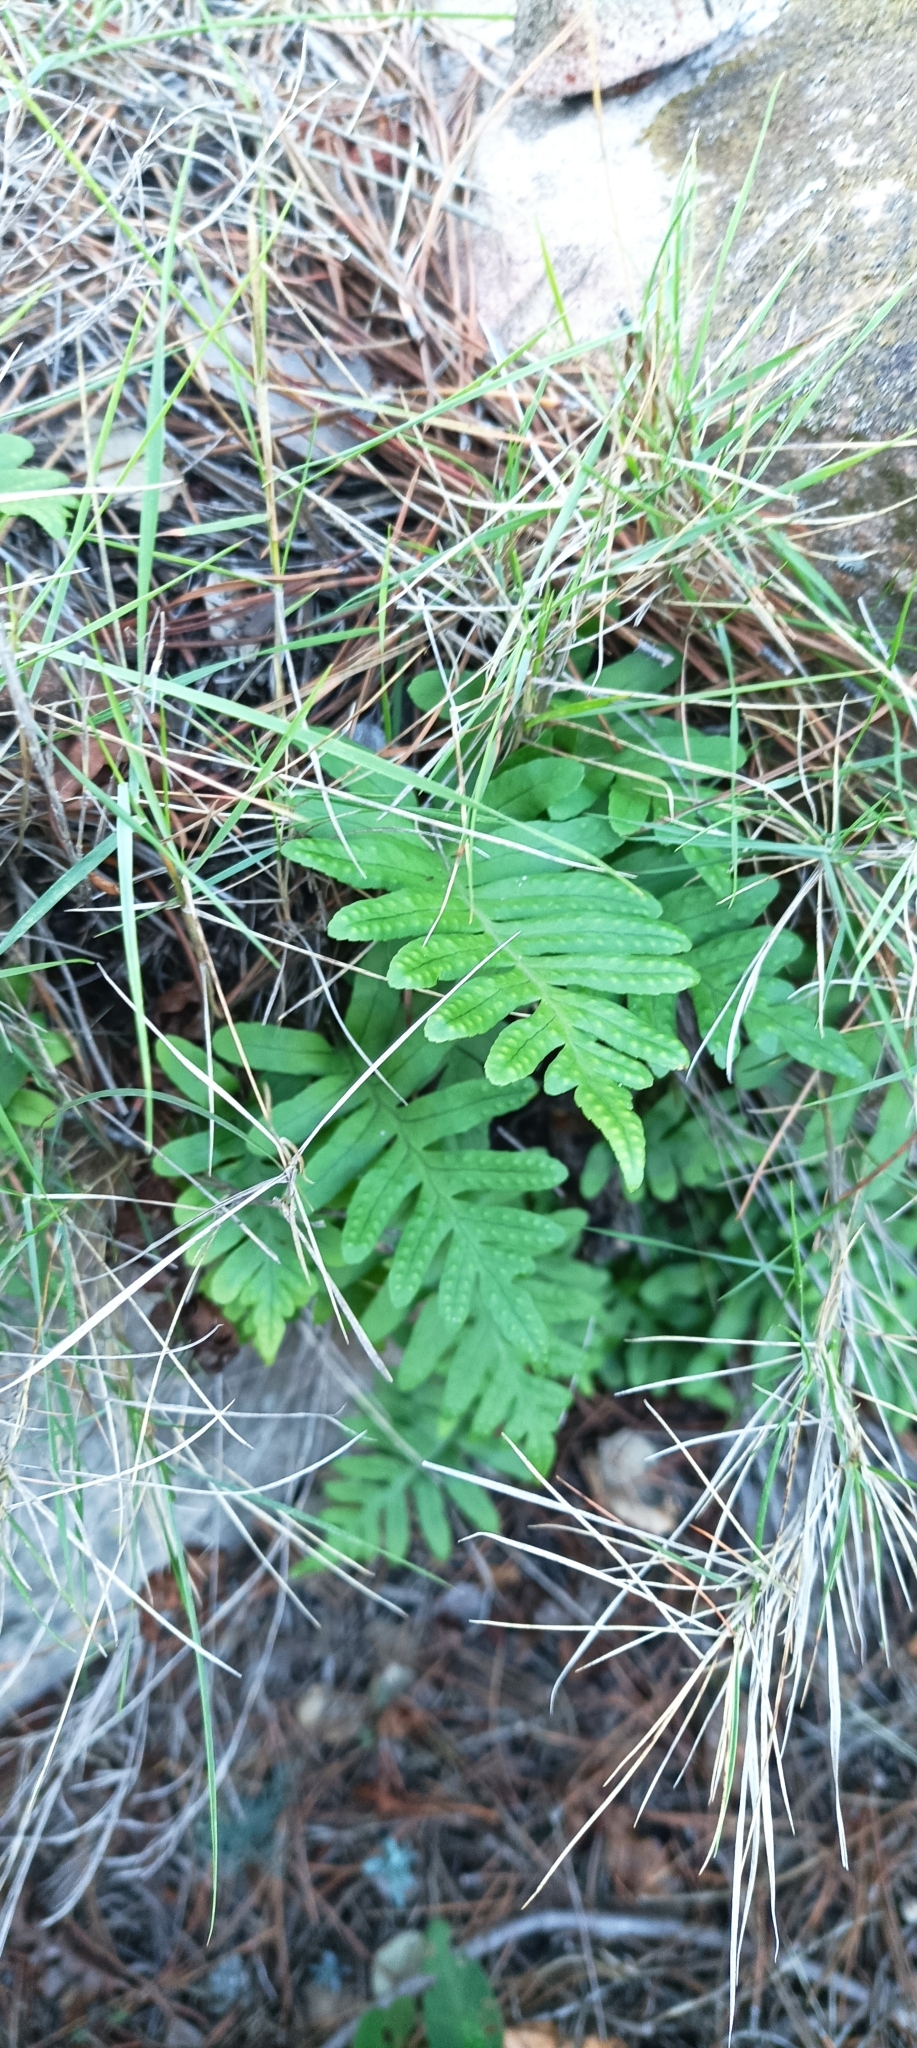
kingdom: Plantae
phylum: Tracheophyta
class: Polypodiopsida
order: Polypodiales
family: Polypodiaceae
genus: Polypodium
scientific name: Polypodium cambricum
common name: Southern polypody
